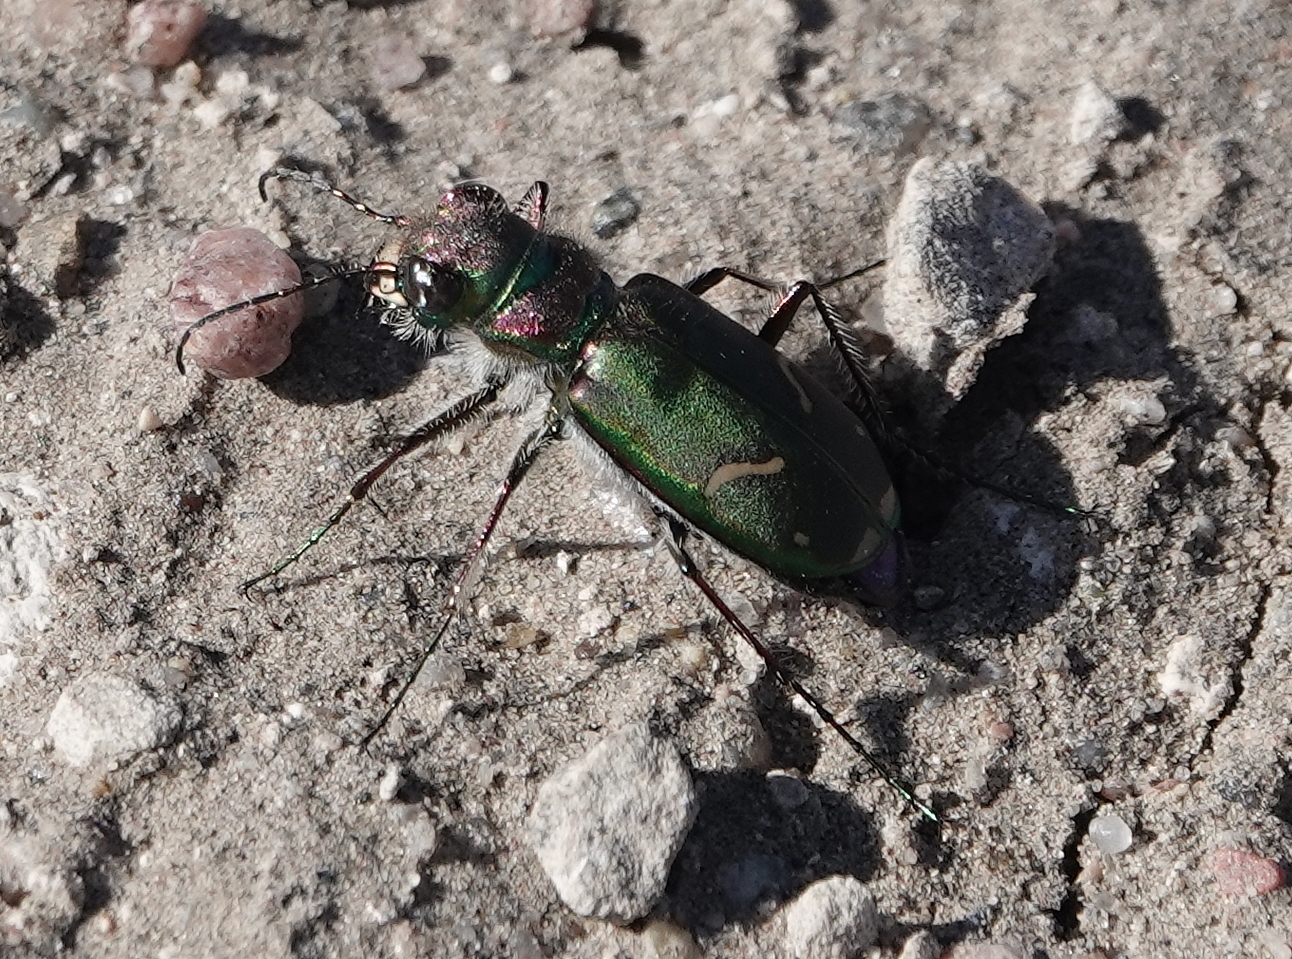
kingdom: Animalia
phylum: Arthropoda
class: Insecta
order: Coleoptera
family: Carabidae
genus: Cicindela
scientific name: Cicindela purpurea
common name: Cow path tiger beetle
